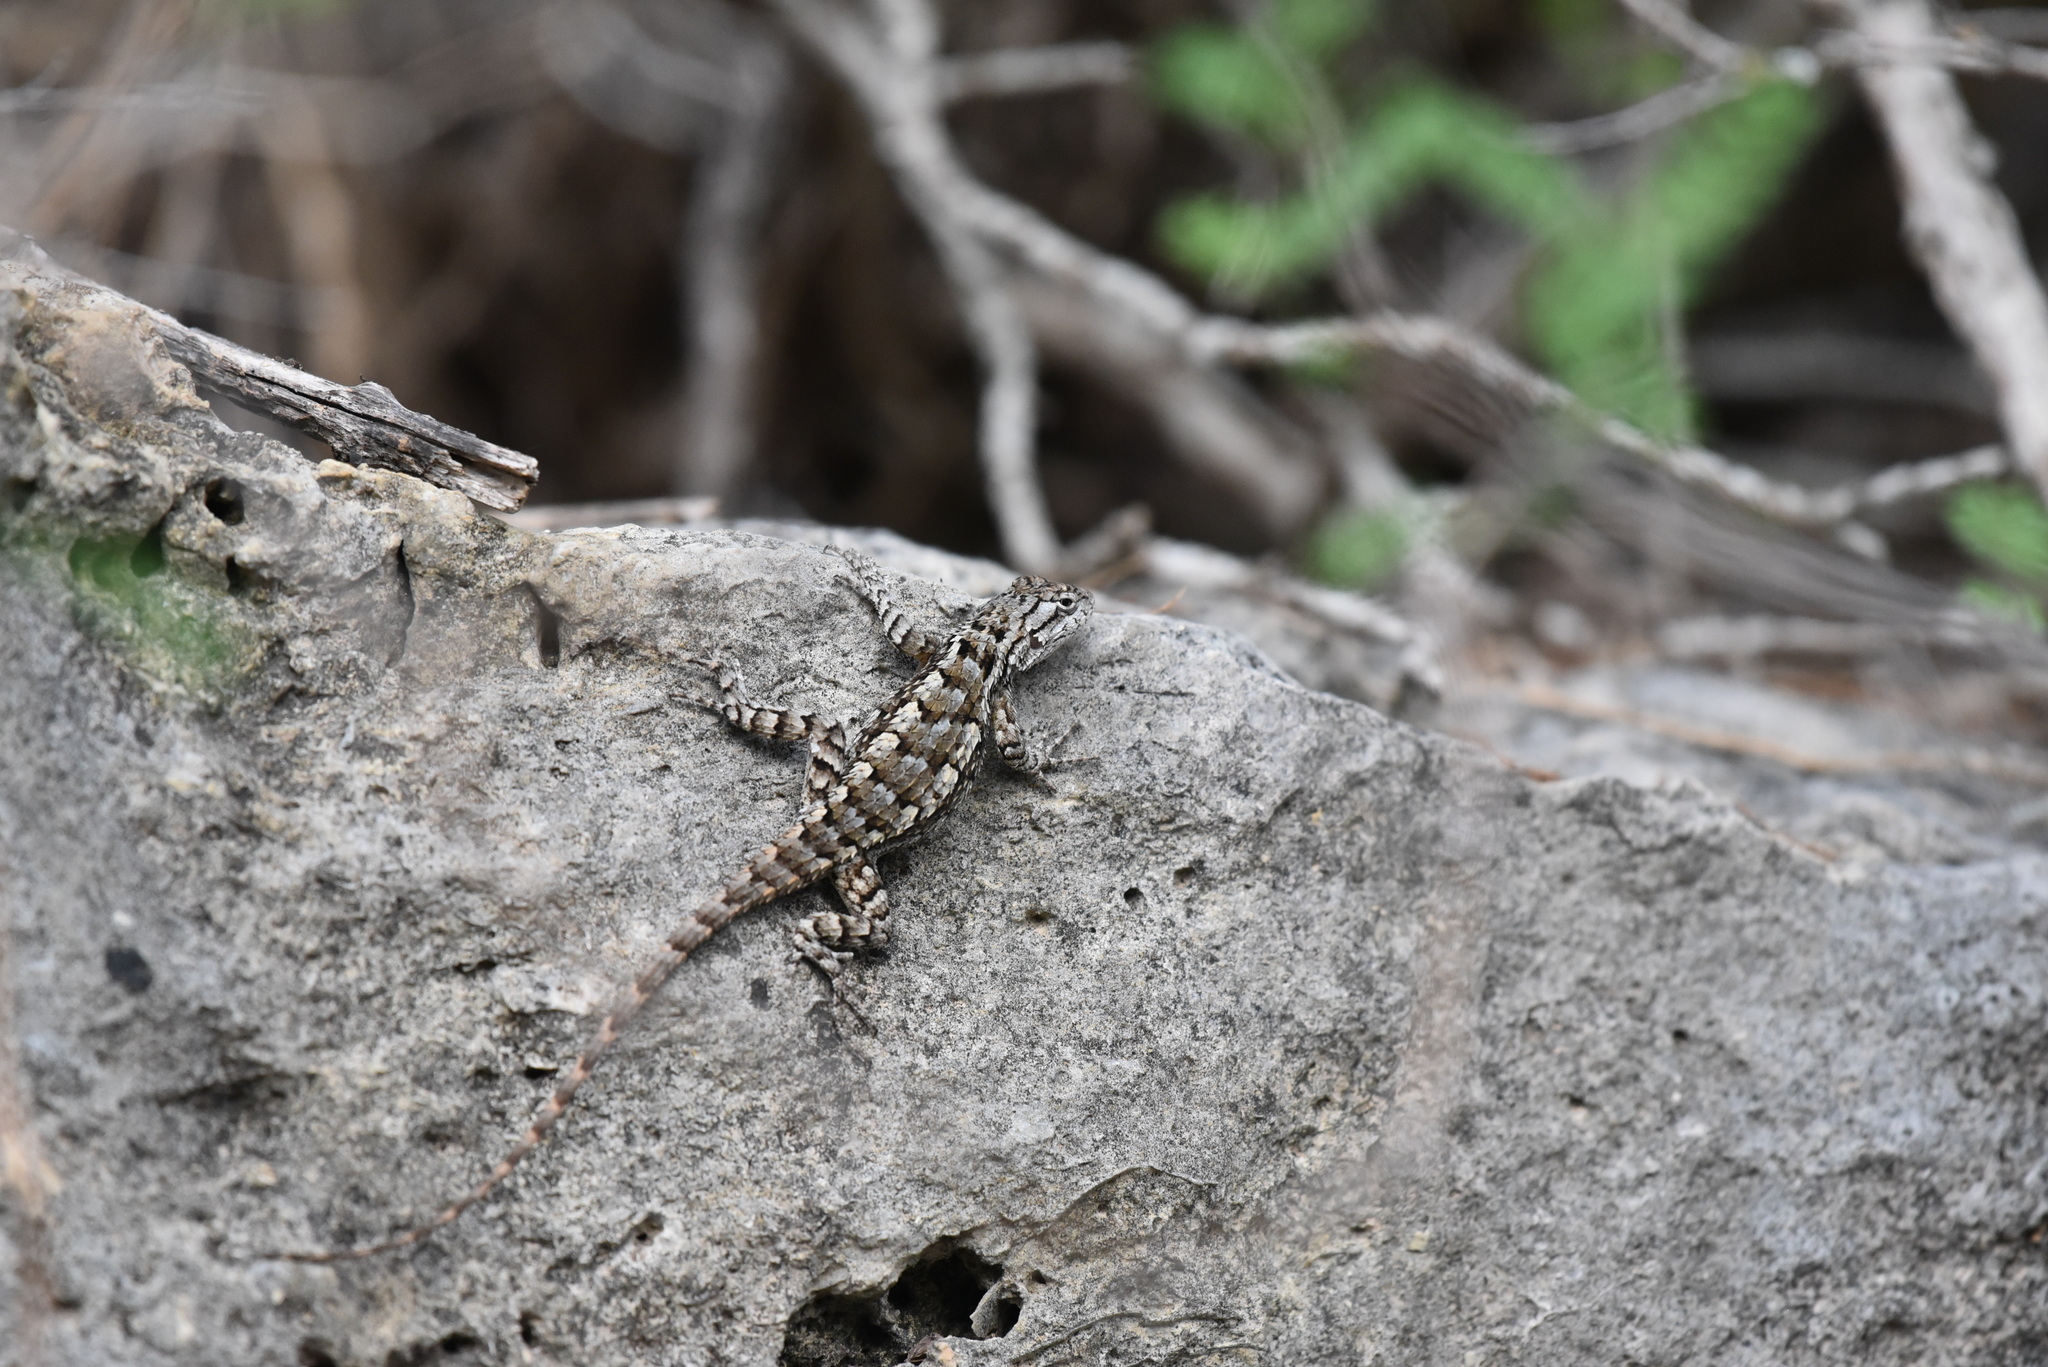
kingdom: Animalia
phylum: Chordata
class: Squamata
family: Phrynosomatidae
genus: Sceloporus
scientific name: Sceloporus olivaceus
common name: Texas spiny lizard
